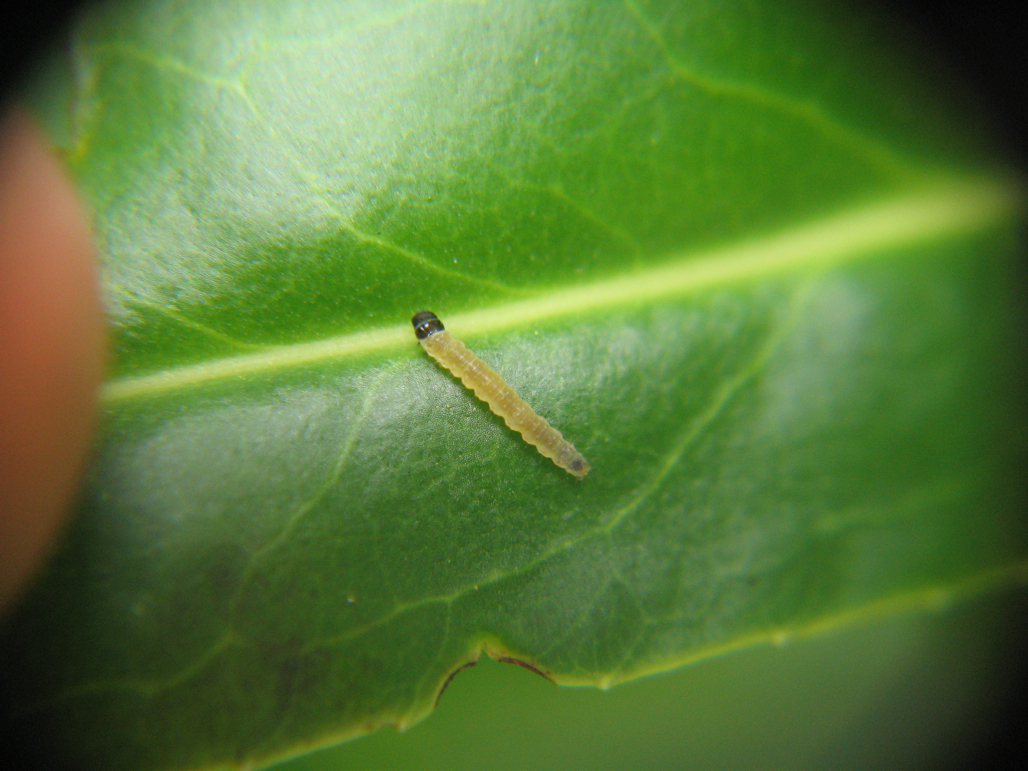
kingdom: Plantae
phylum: Tracheophyta
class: Magnoliopsida
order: Lamiales
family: Plantaginaceae
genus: Veronica
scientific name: Veronica salicifolia
